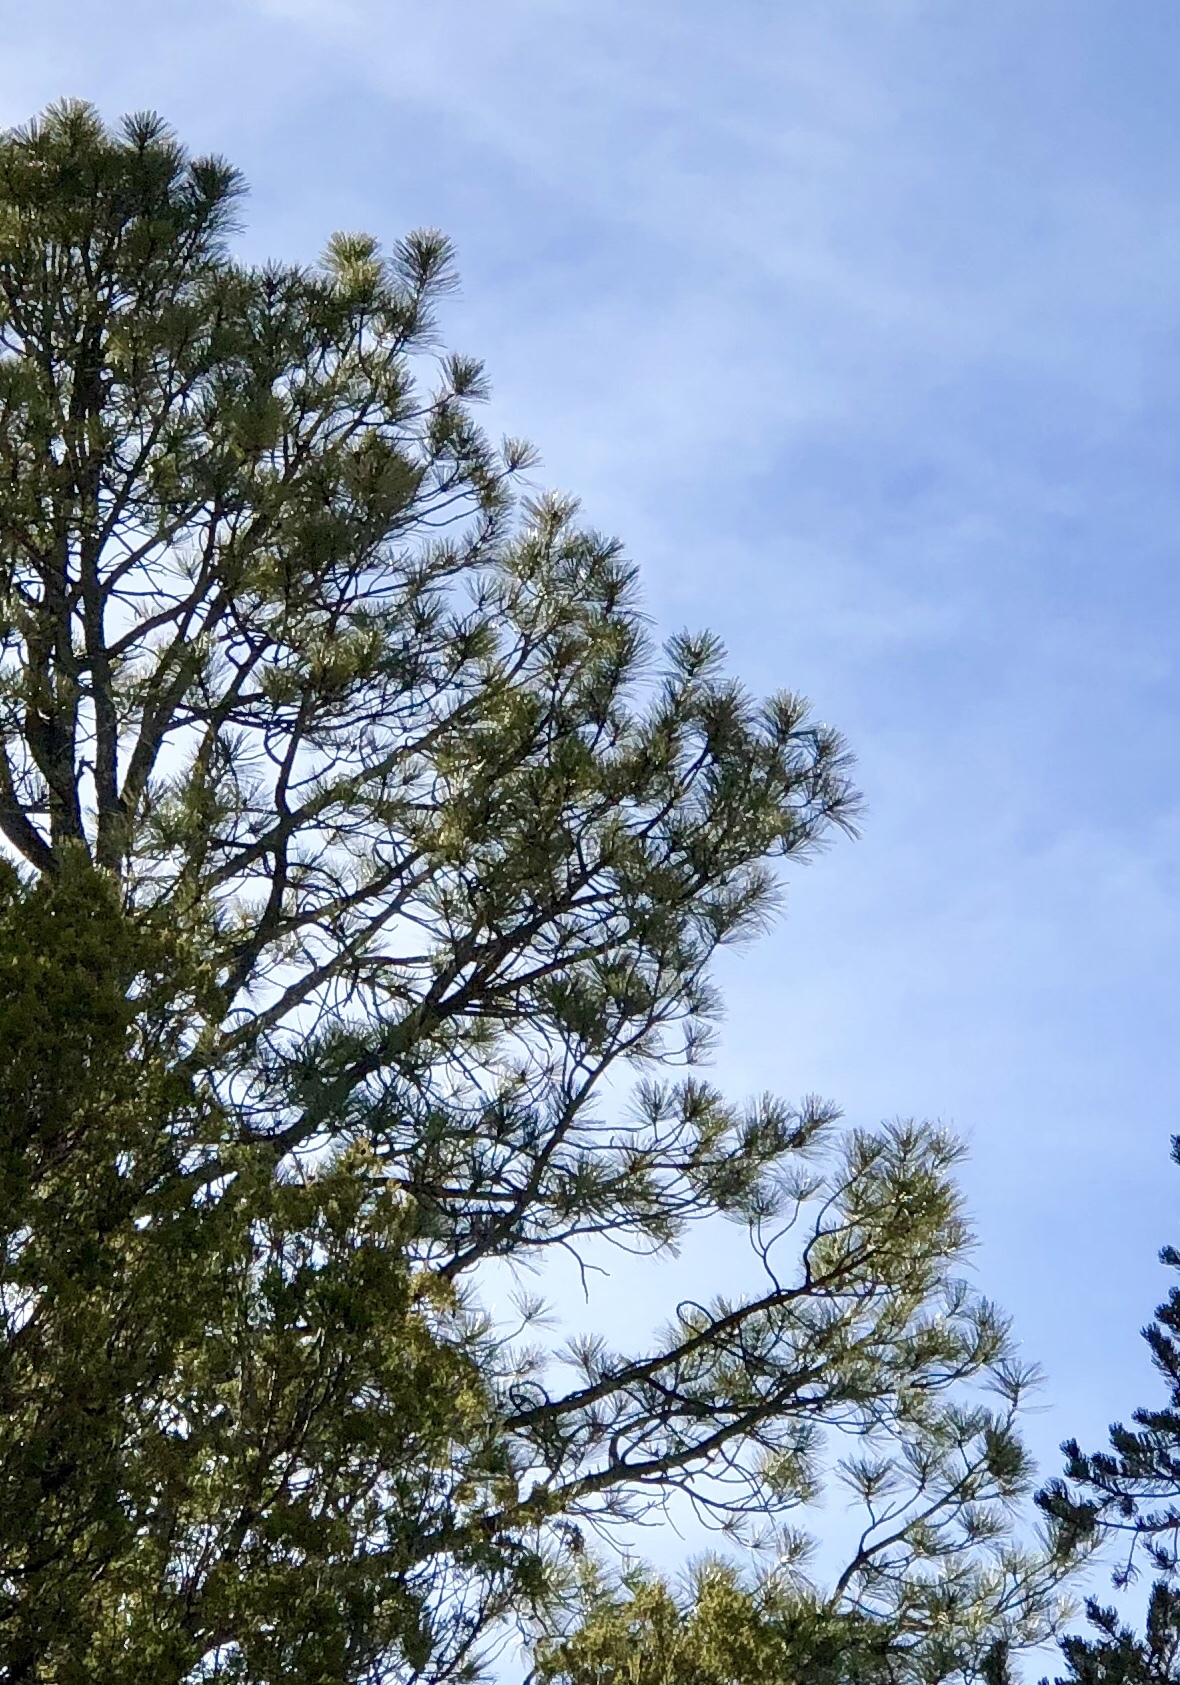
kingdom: Plantae
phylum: Tracheophyta
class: Pinopsida
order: Pinales
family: Pinaceae
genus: Pinus
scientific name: Pinus ponderosa
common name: Western yellow-pine
